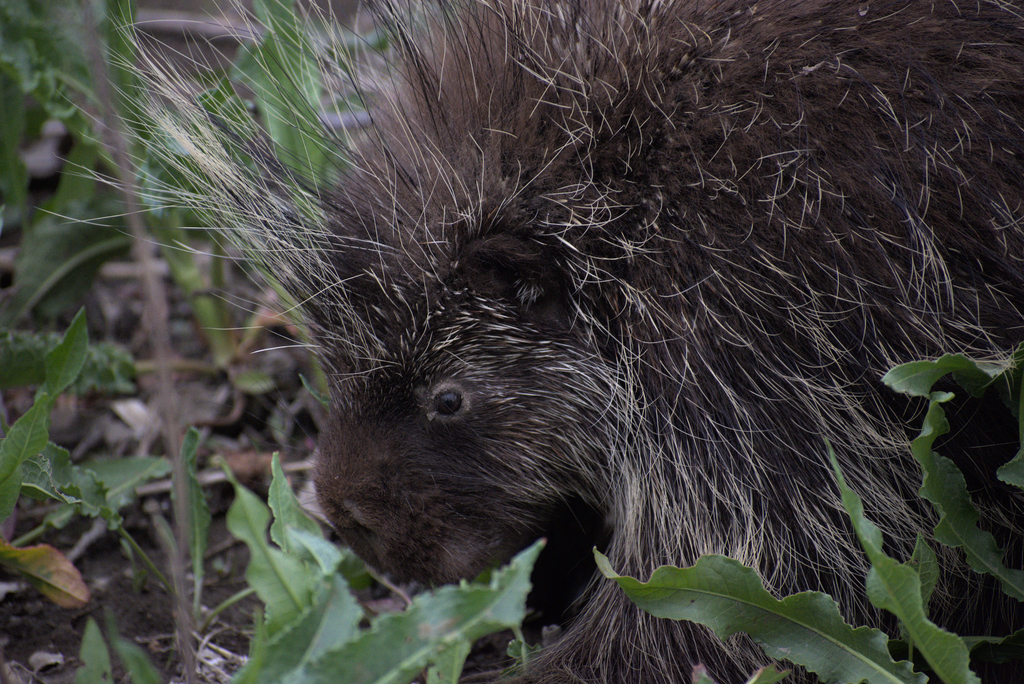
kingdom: Animalia
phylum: Chordata
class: Mammalia
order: Rodentia
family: Erethizontidae
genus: Erethizon
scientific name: Erethizon dorsatus
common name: North american porcupine
